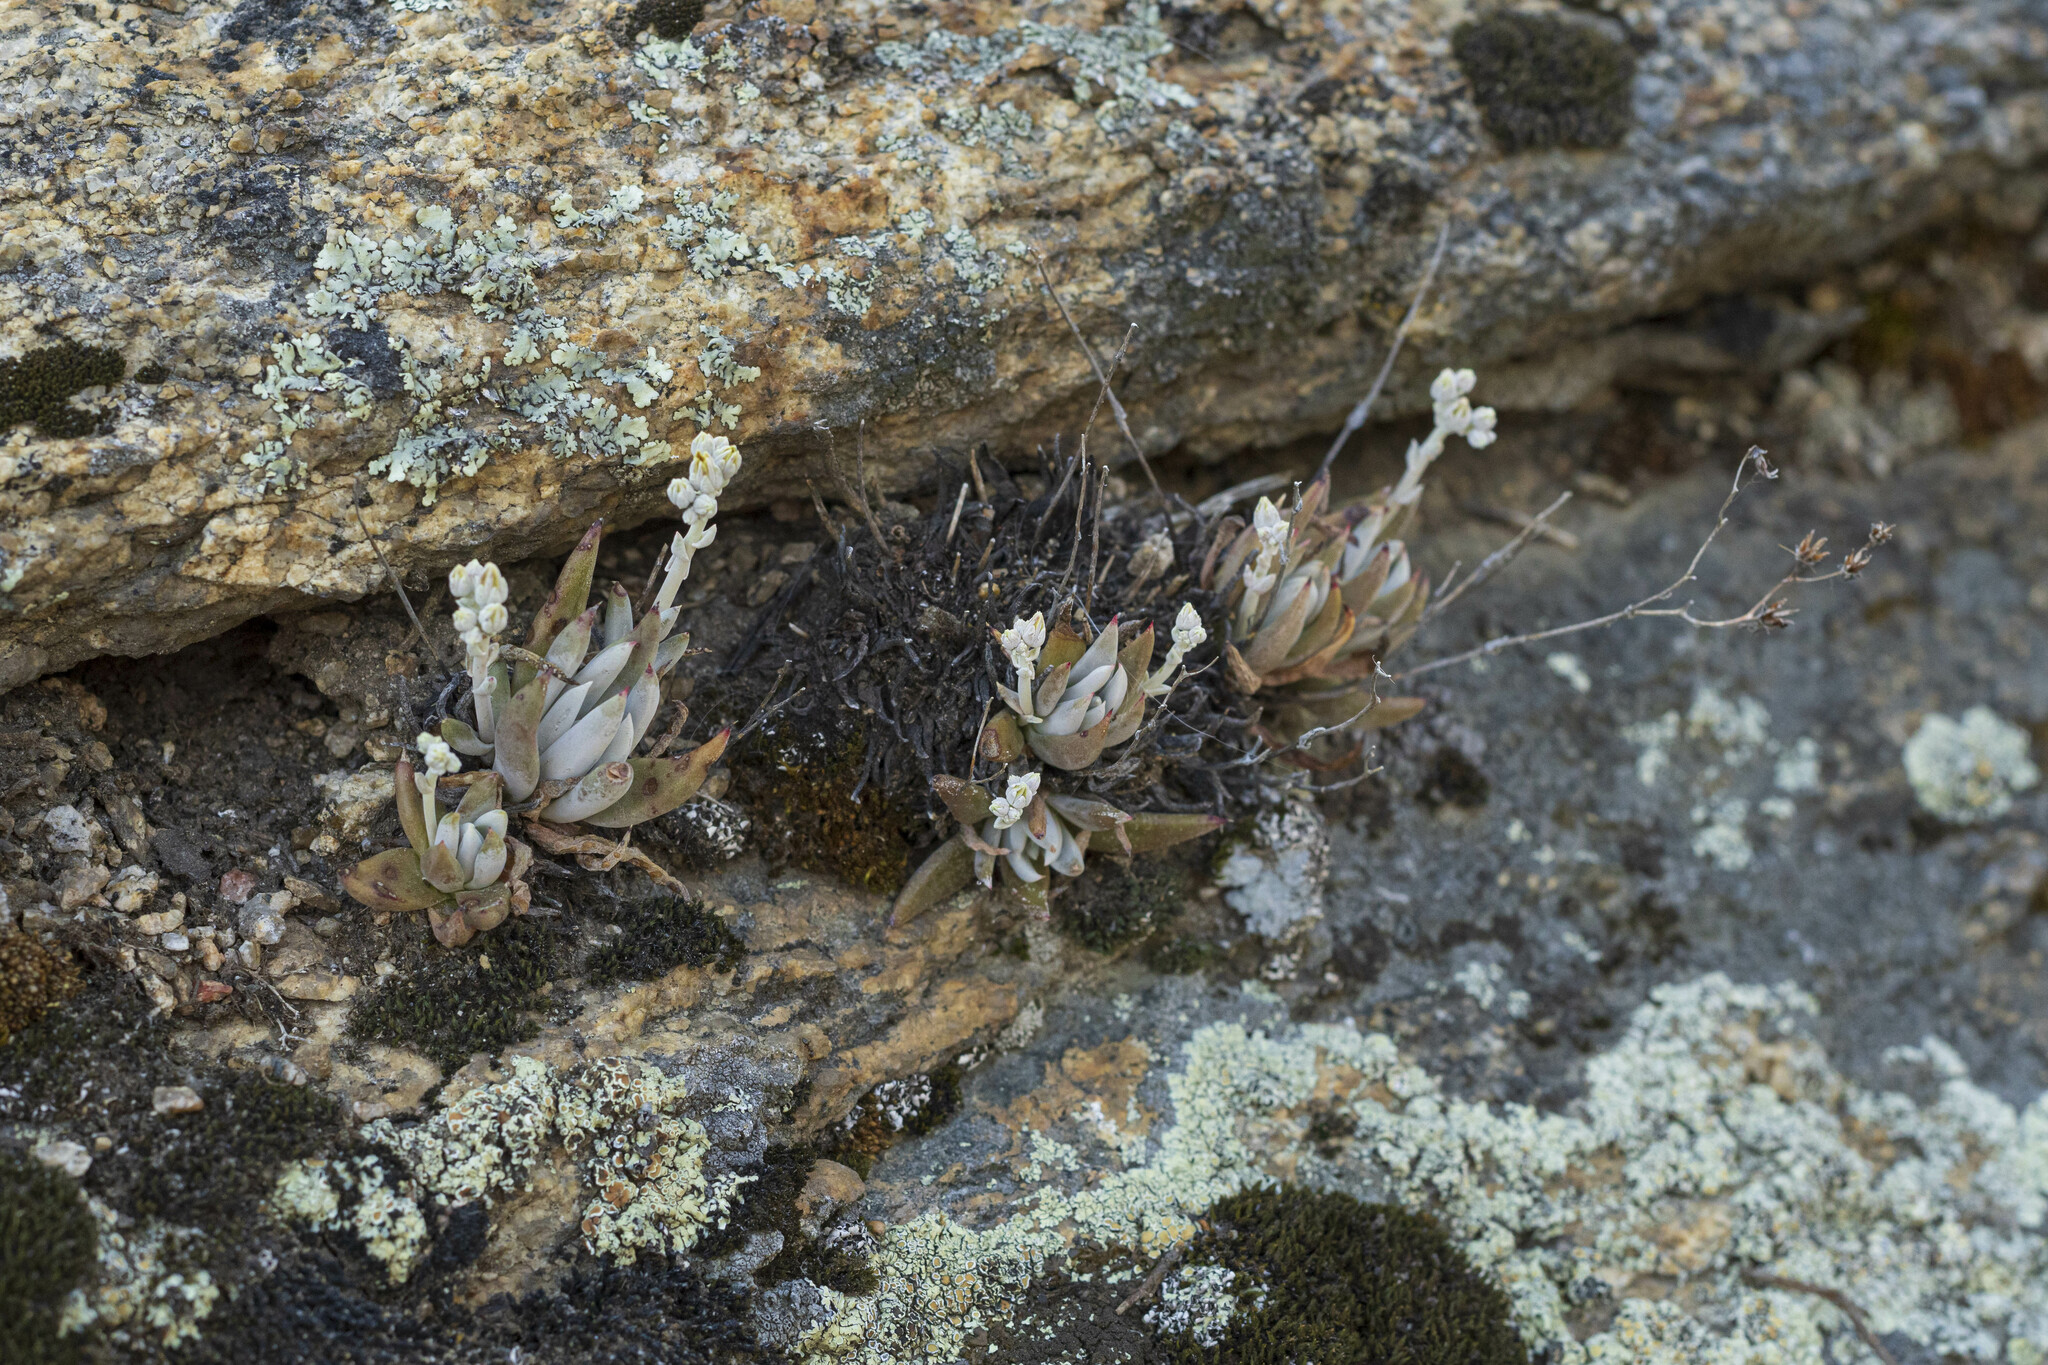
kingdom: Plantae
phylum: Tracheophyta
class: Magnoliopsida
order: Saxifragales
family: Crassulaceae
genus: Dudleya
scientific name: Dudleya abramsii
